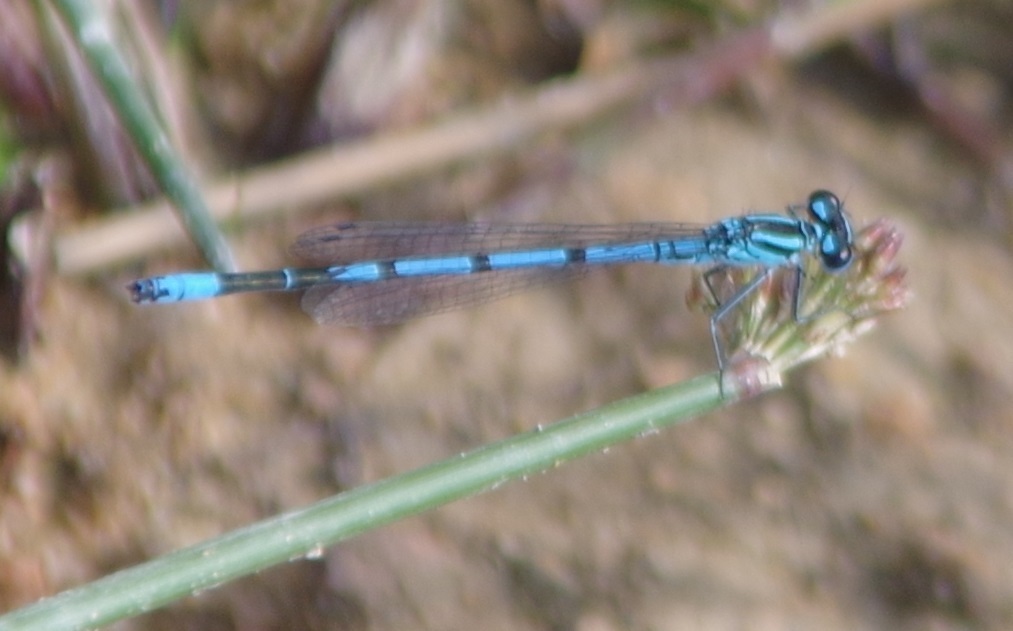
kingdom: Animalia
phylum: Arthropoda
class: Insecta
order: Odonata
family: Coenagrionidae
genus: Coenagrion
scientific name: Coenagrion puella
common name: Azure damselfly
